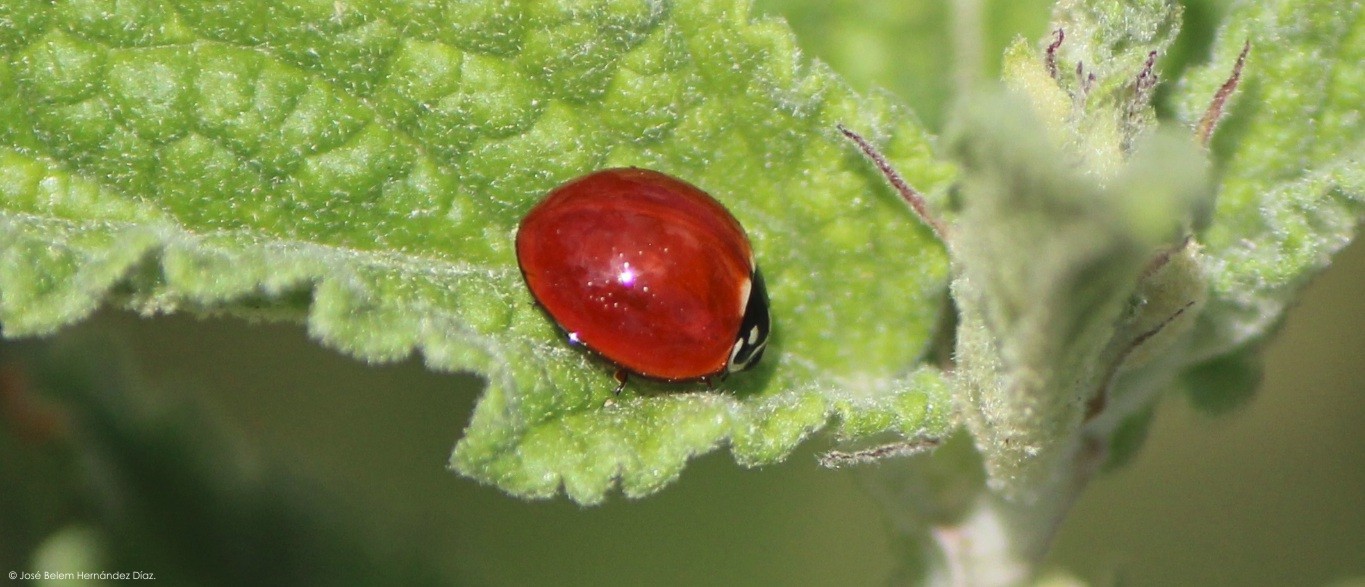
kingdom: Animalia
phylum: Arthropoda
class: Insecta
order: Coleoptera
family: Coccinellidae
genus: Cycloneda
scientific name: Cycloneda sanguinea
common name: Ladybird beetle
